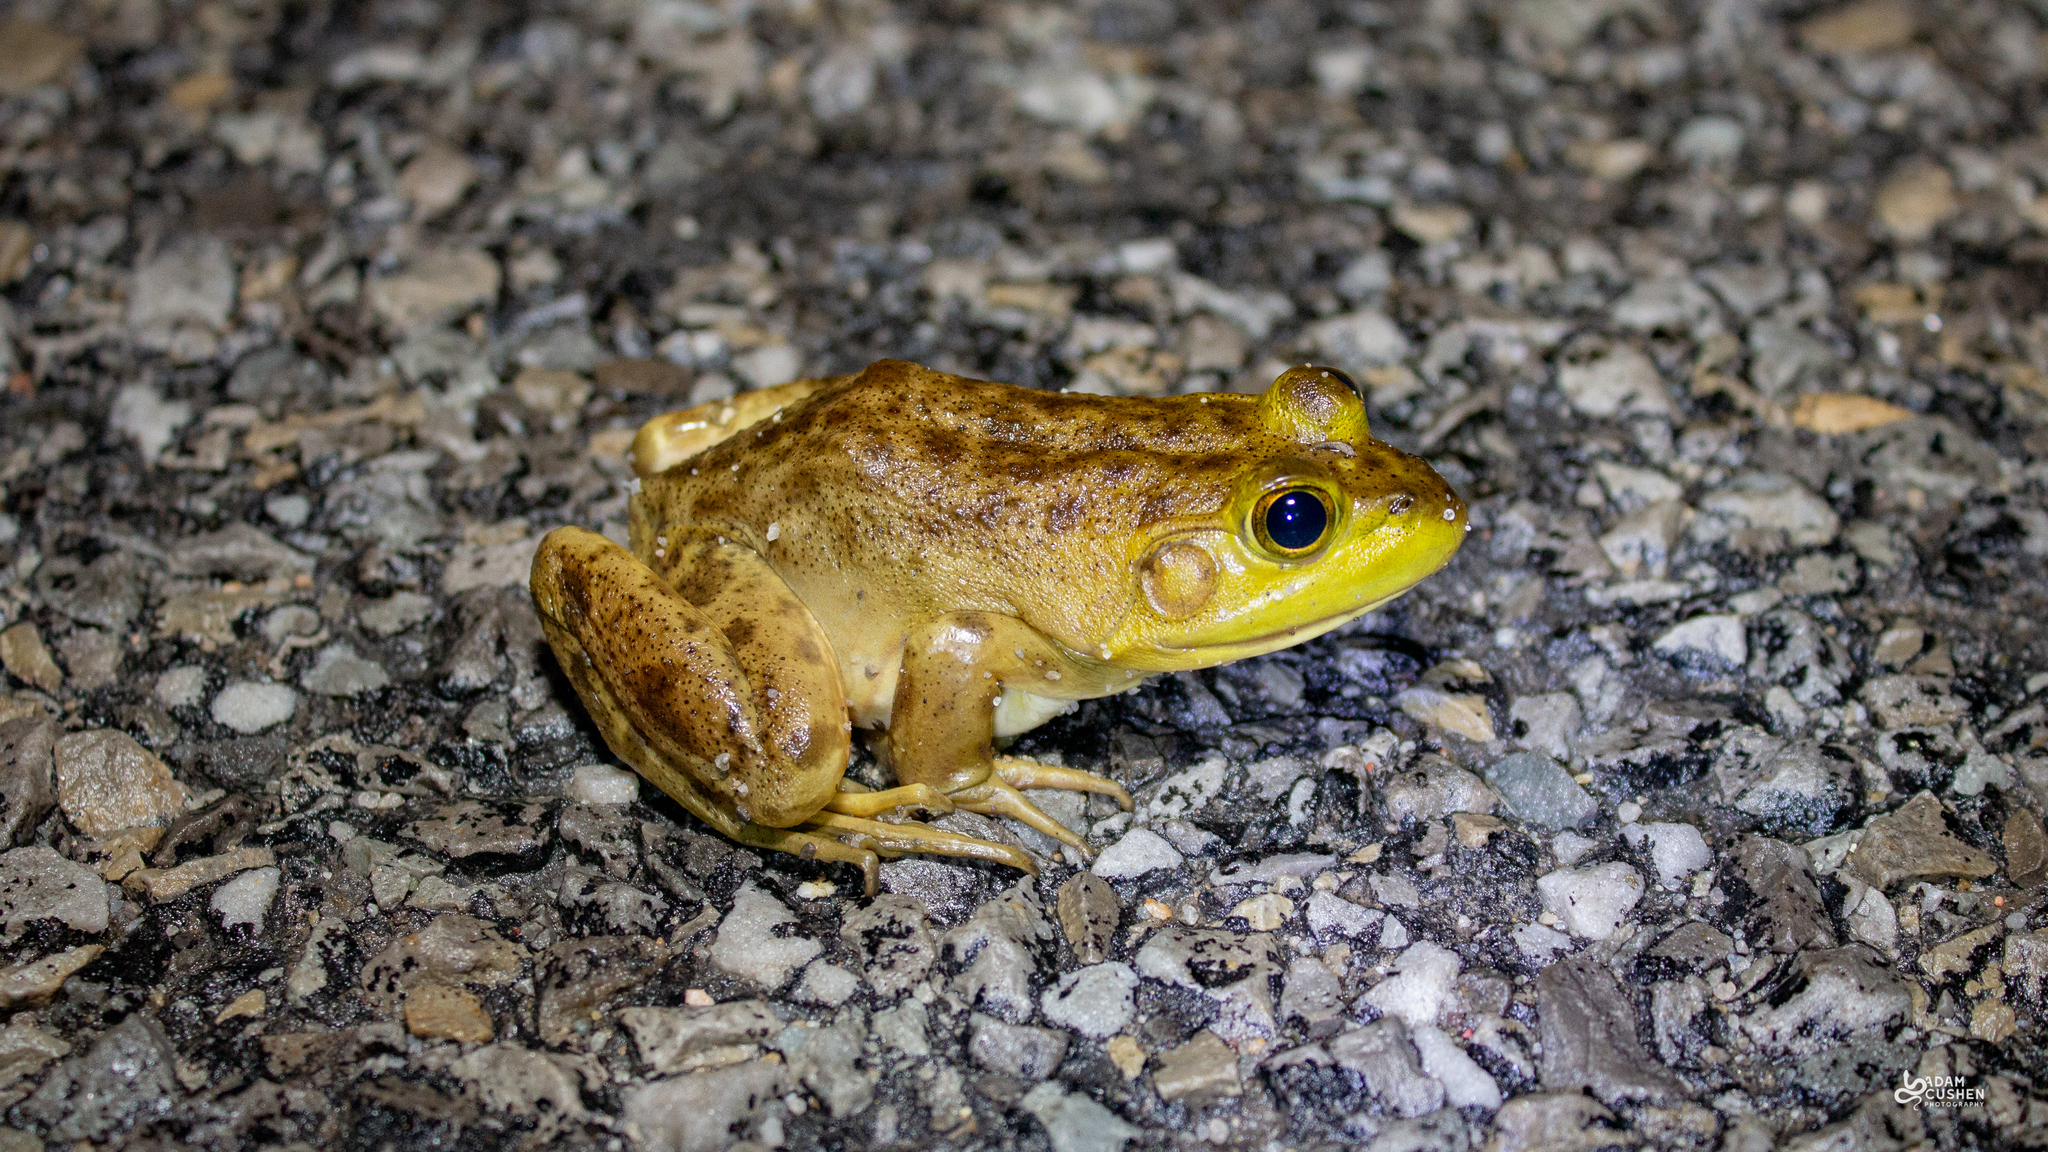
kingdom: Animalia
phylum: Chordata
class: Amphibia
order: Anura
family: Ranidae
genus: Lithobates
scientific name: Lithobates catesbeianus
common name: American bullfrog
